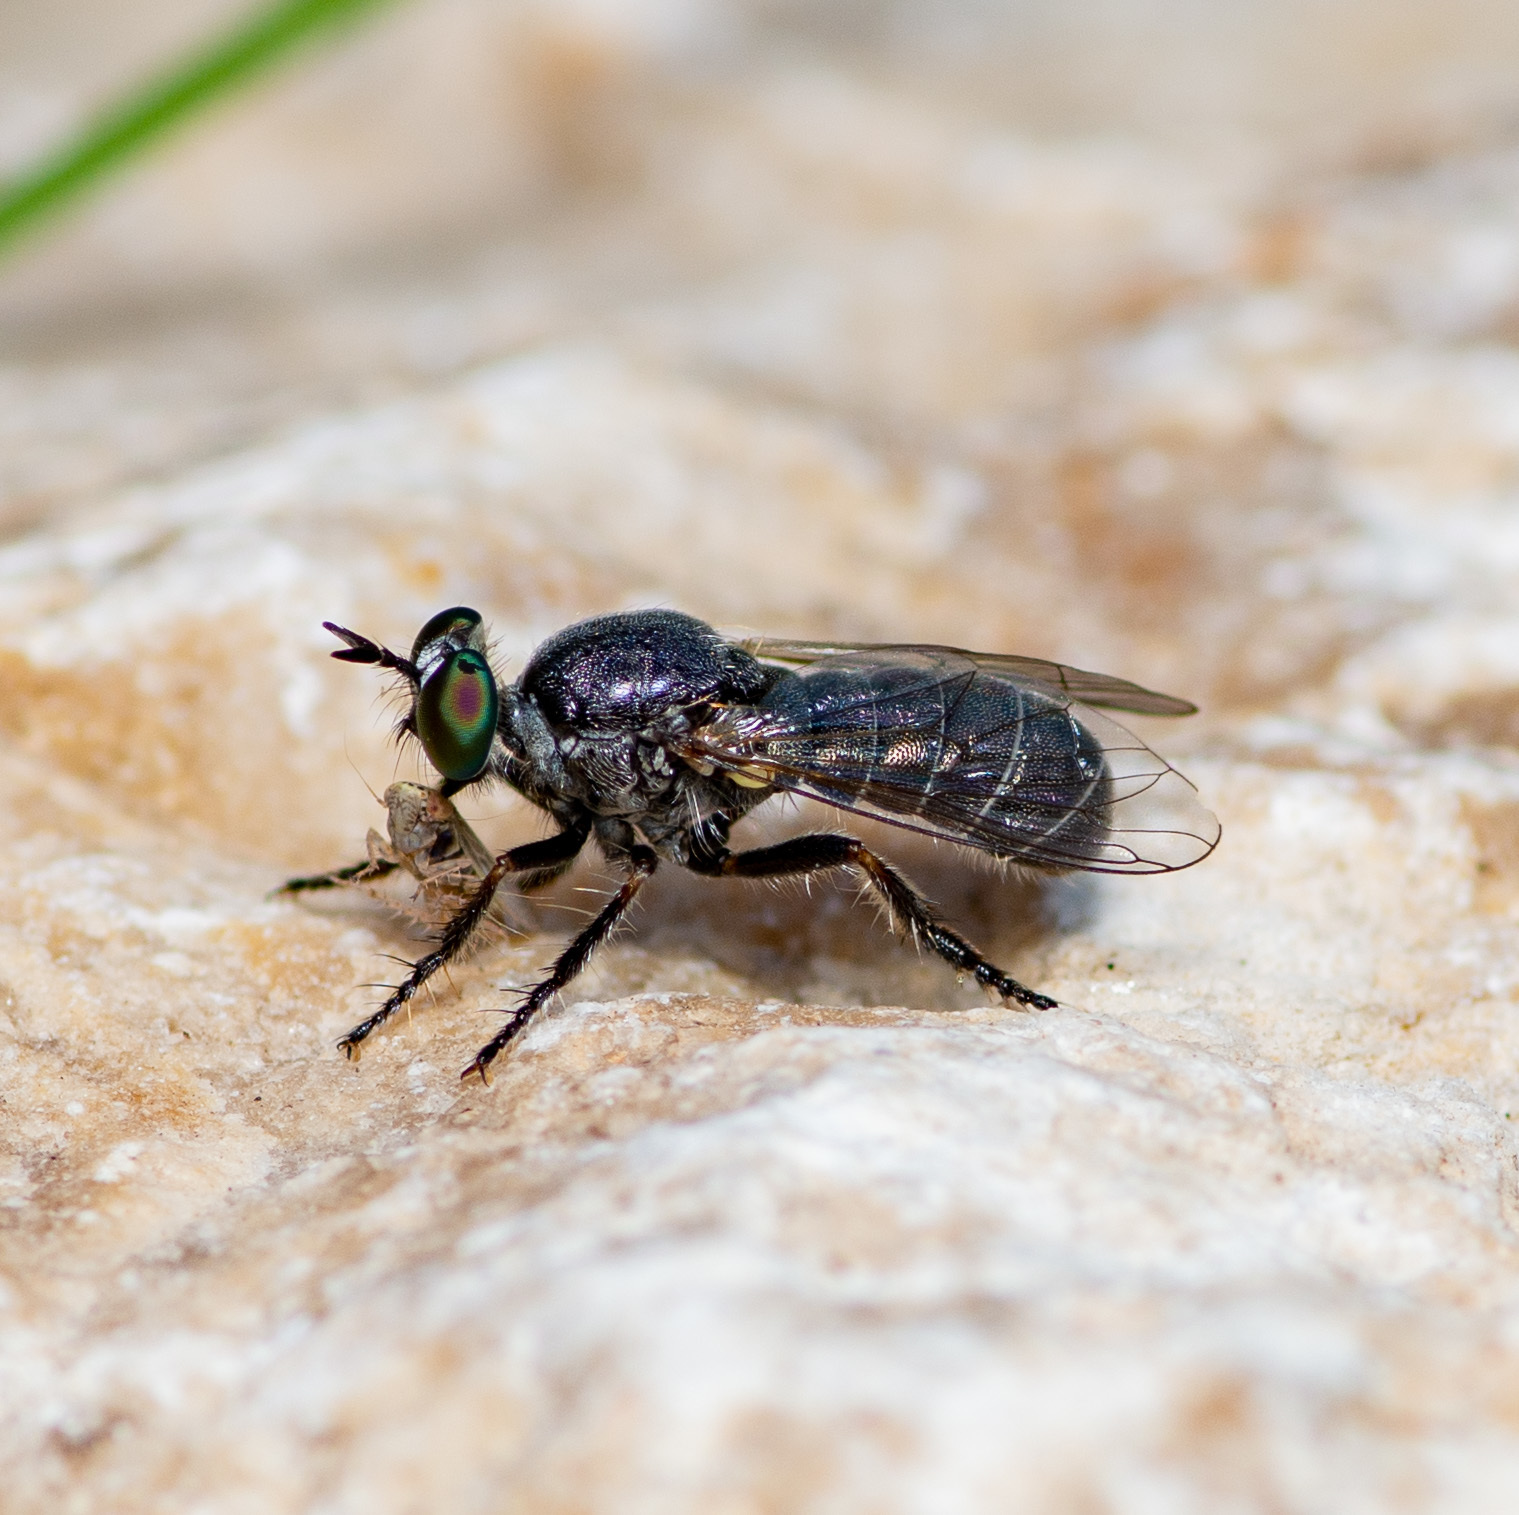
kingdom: Animalia
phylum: Arthropoda
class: Insecta
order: Diptera
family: Asilidae
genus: Atomosia
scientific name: Atomosia melanopogon
